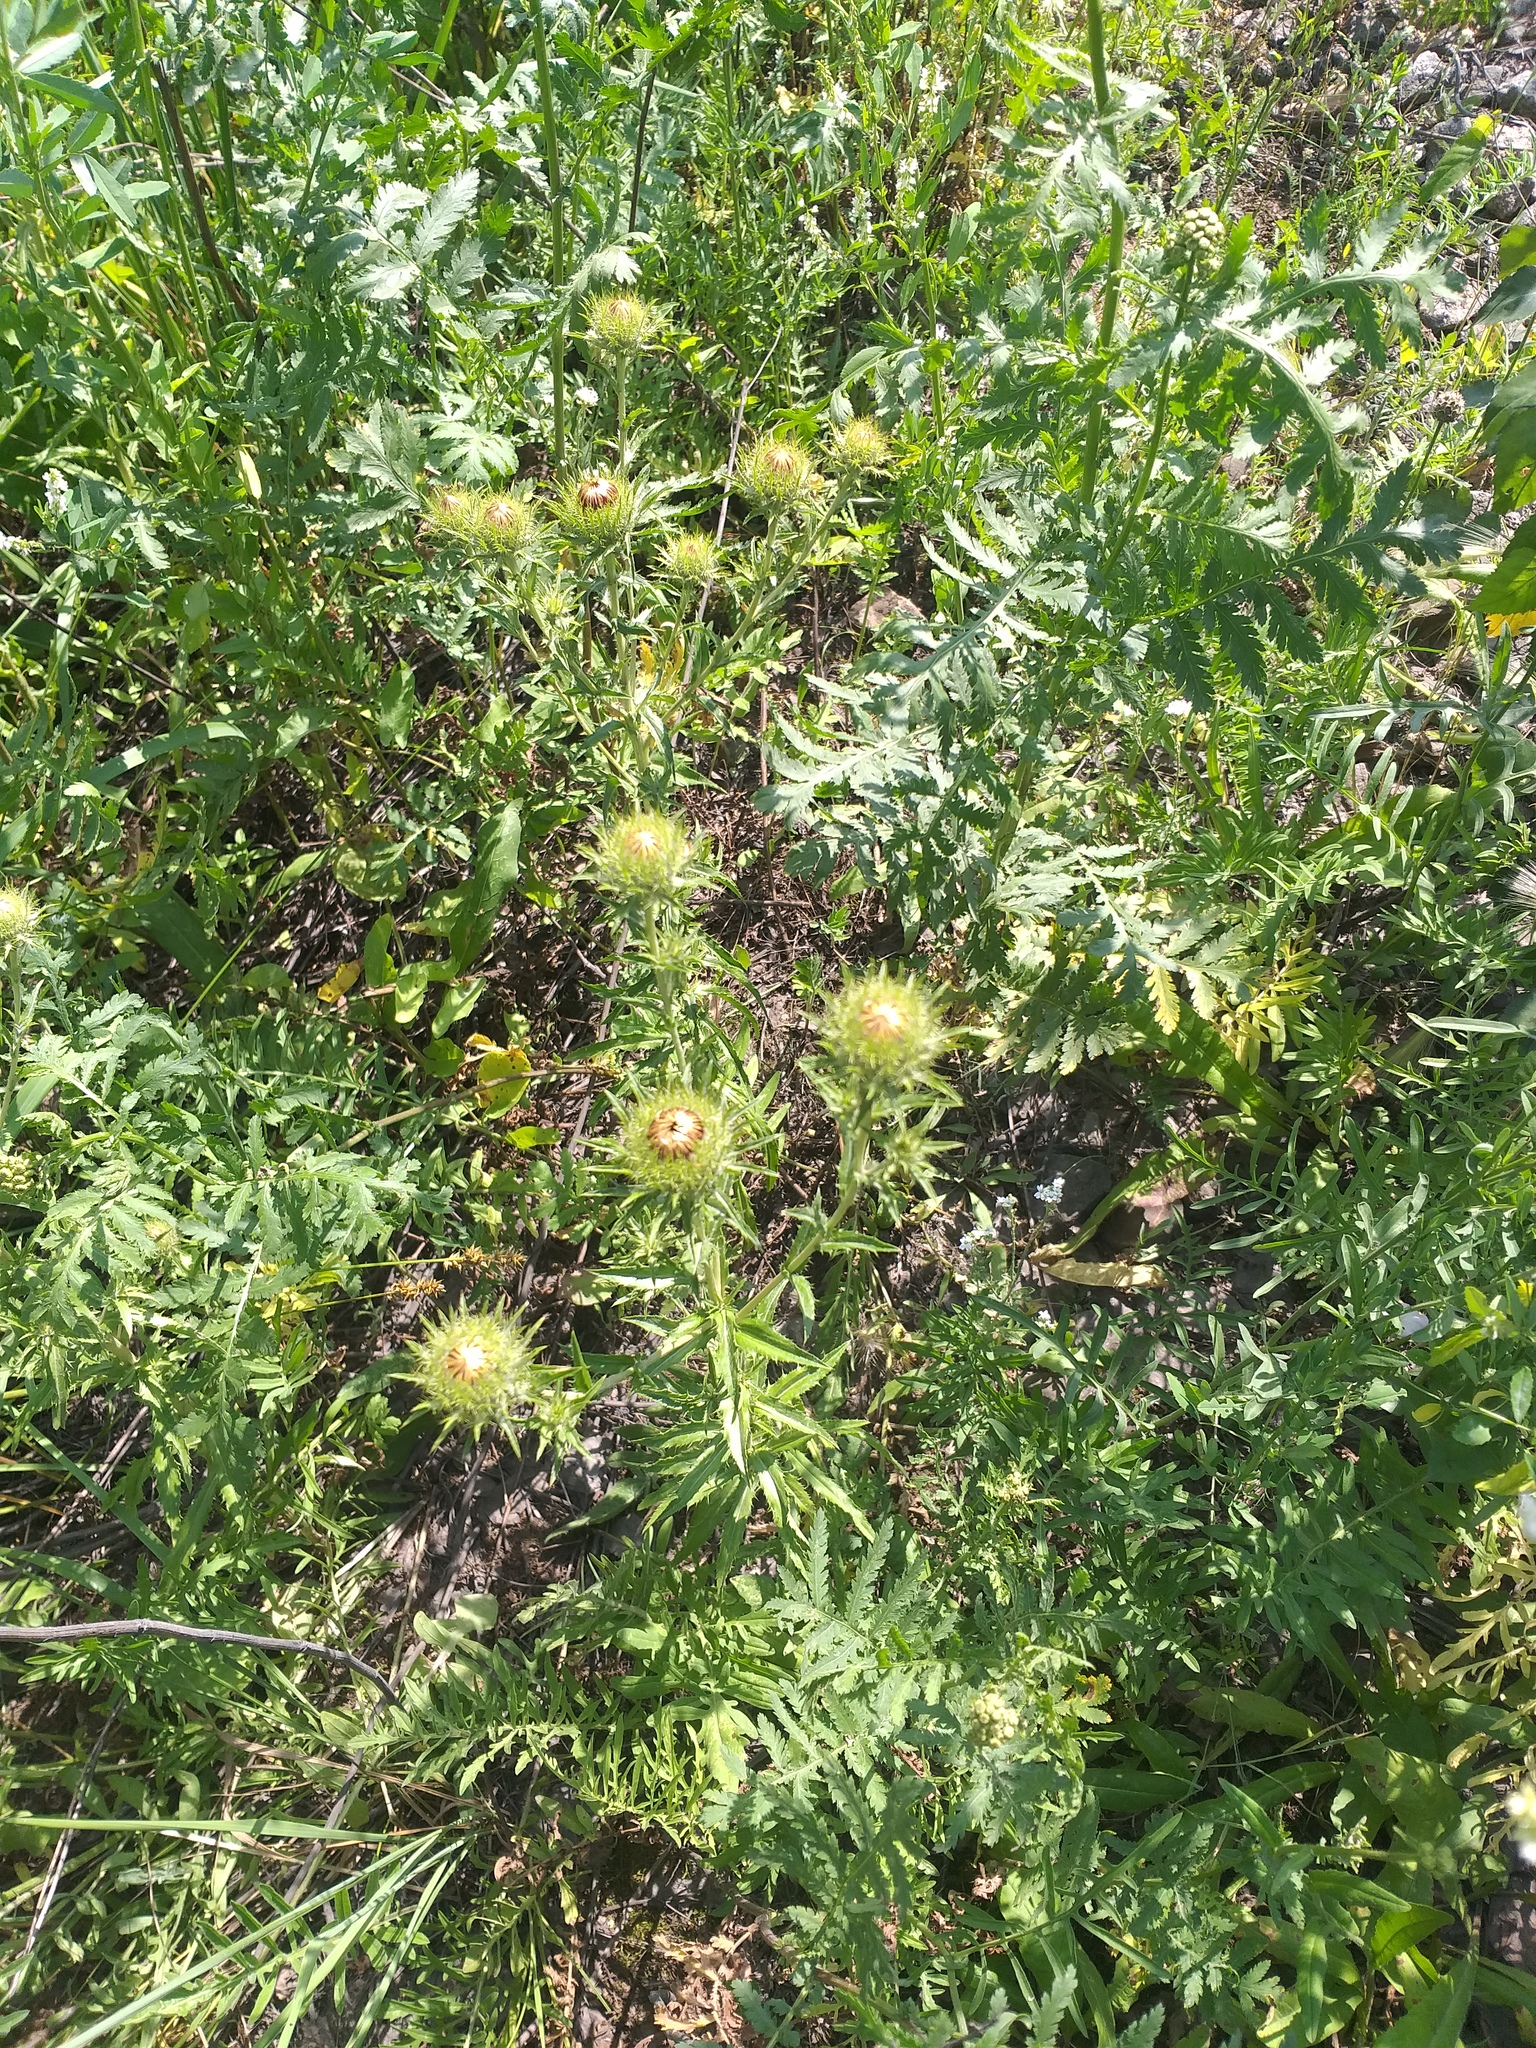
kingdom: Plantae
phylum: Tracheophyta
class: Magnoliopsida
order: Asterales
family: Asteraceae
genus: Carlina
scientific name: Carlina biebersteinii
